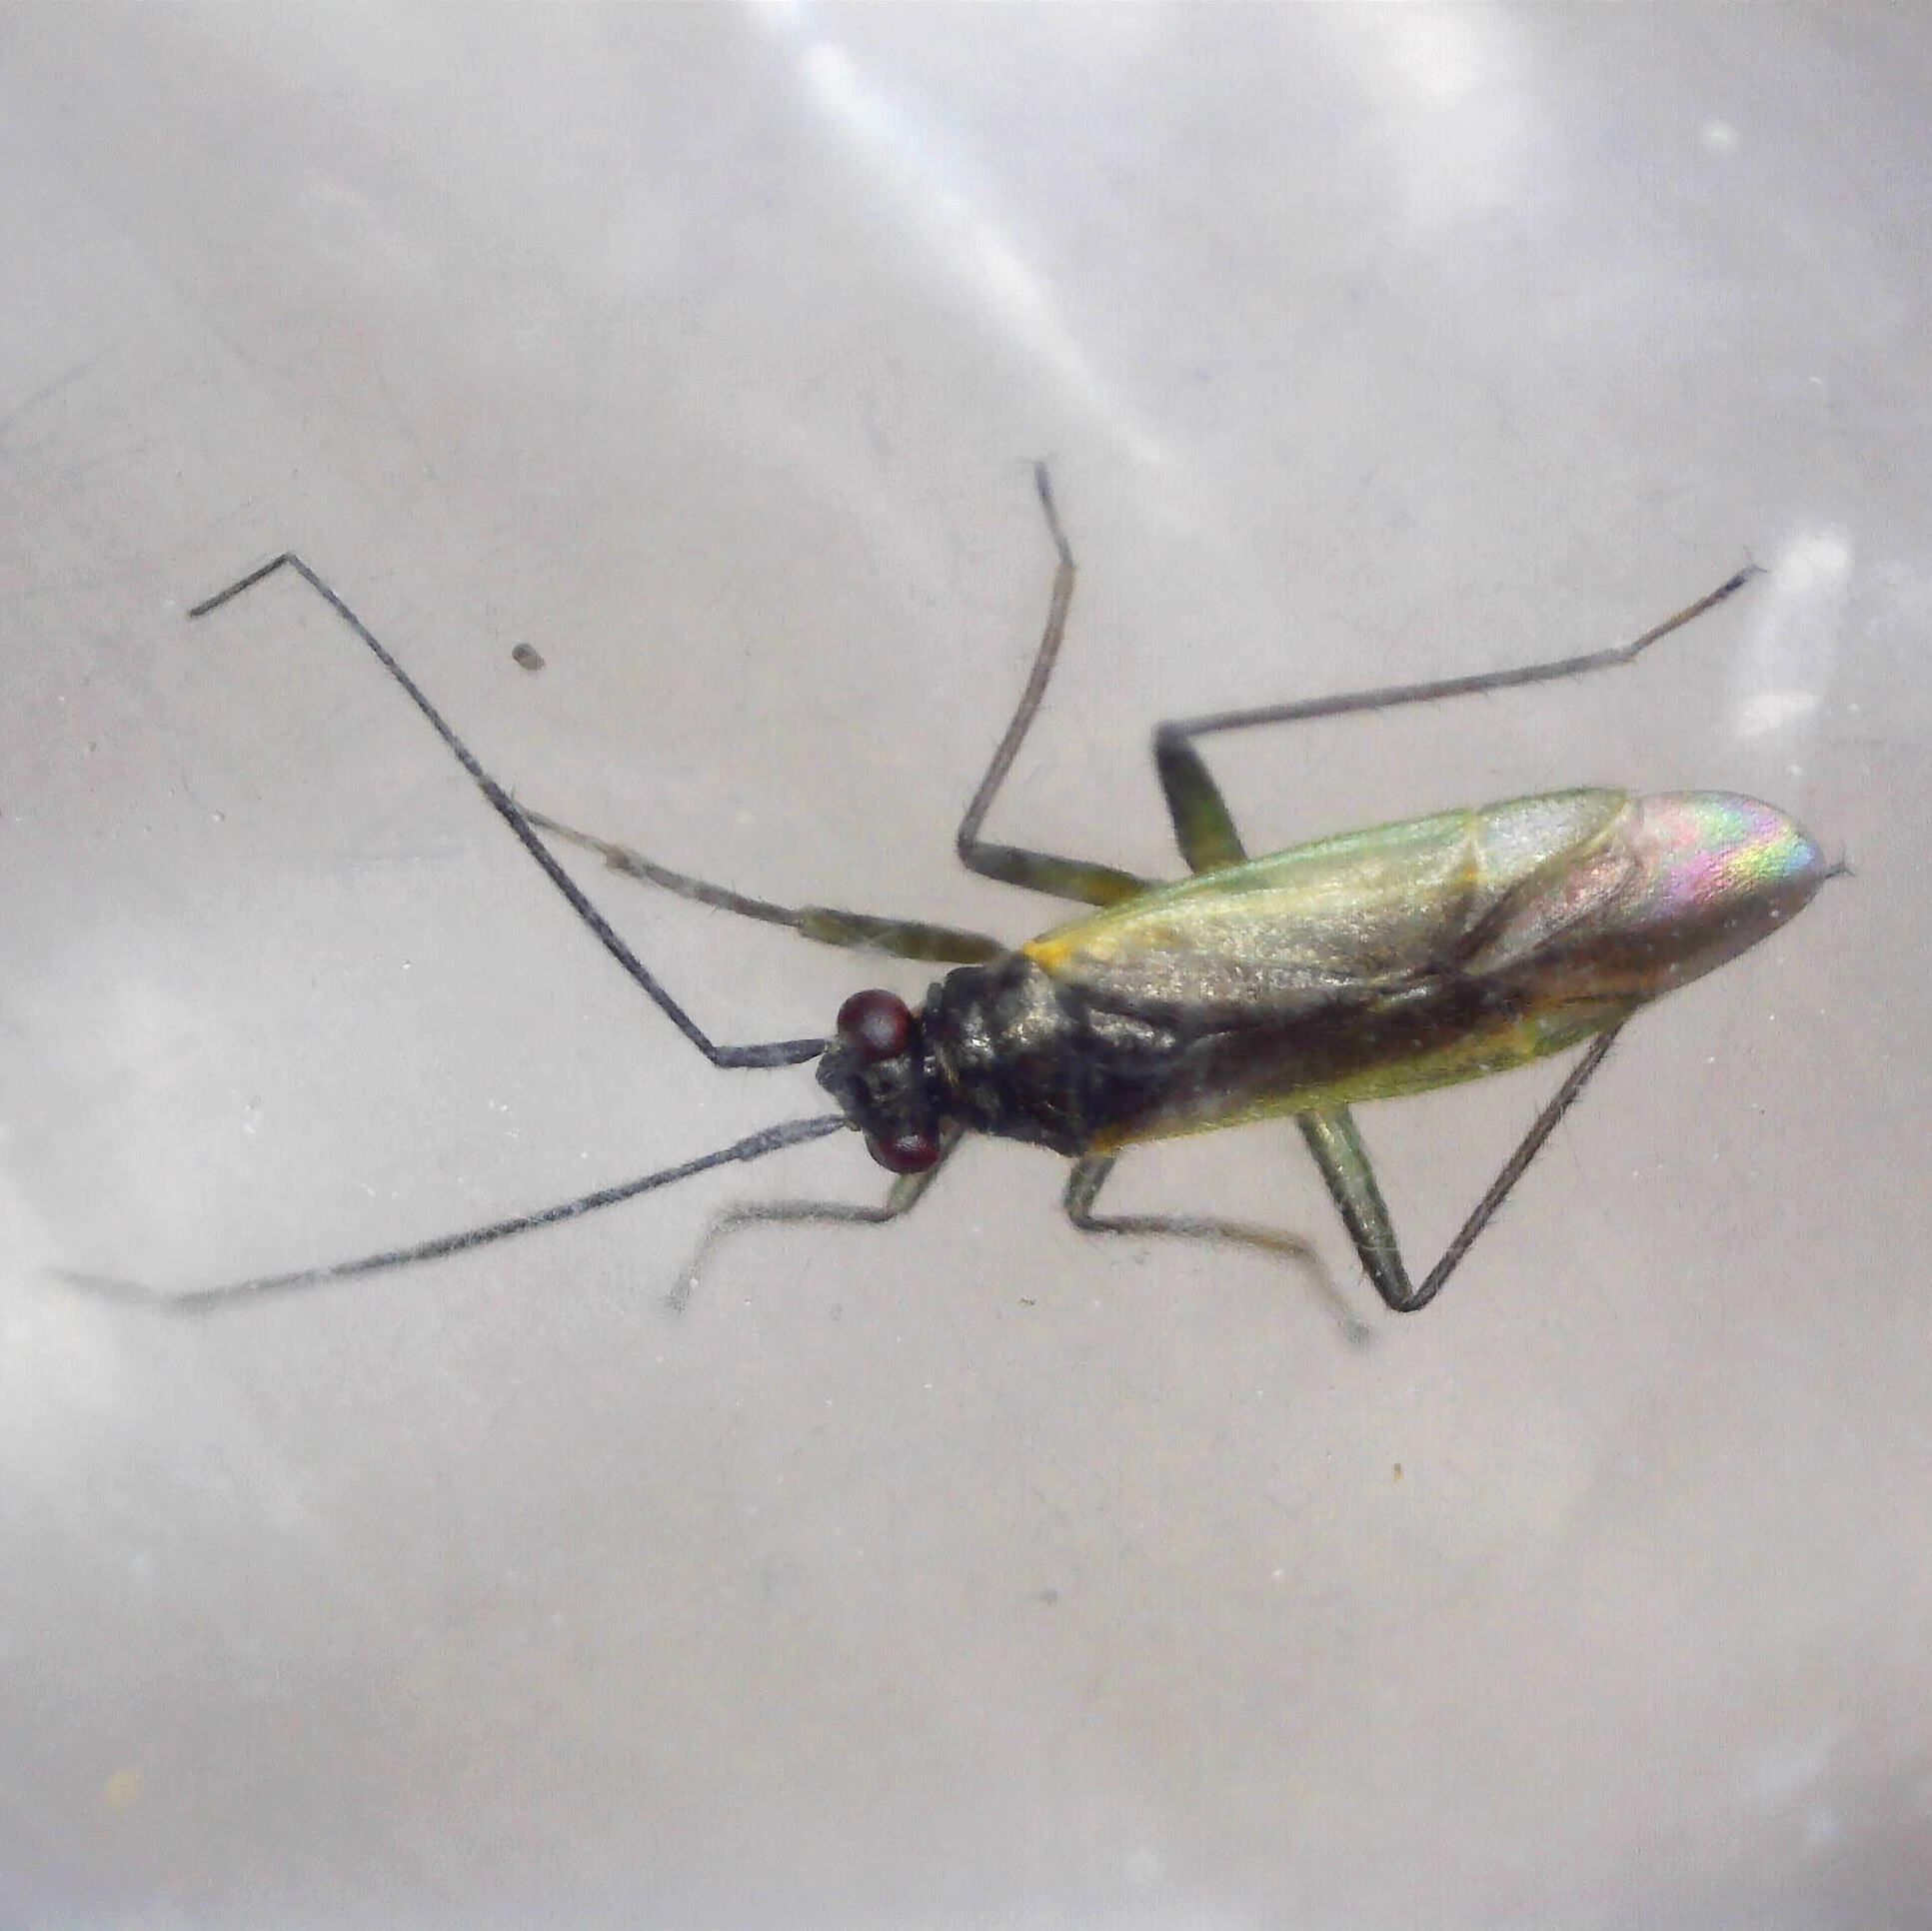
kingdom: Animalia
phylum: Arthropoda
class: Insecta
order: Hemiptera
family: Miridae
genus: Cyrtorhinus
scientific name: Cyrtorhinus caricis
